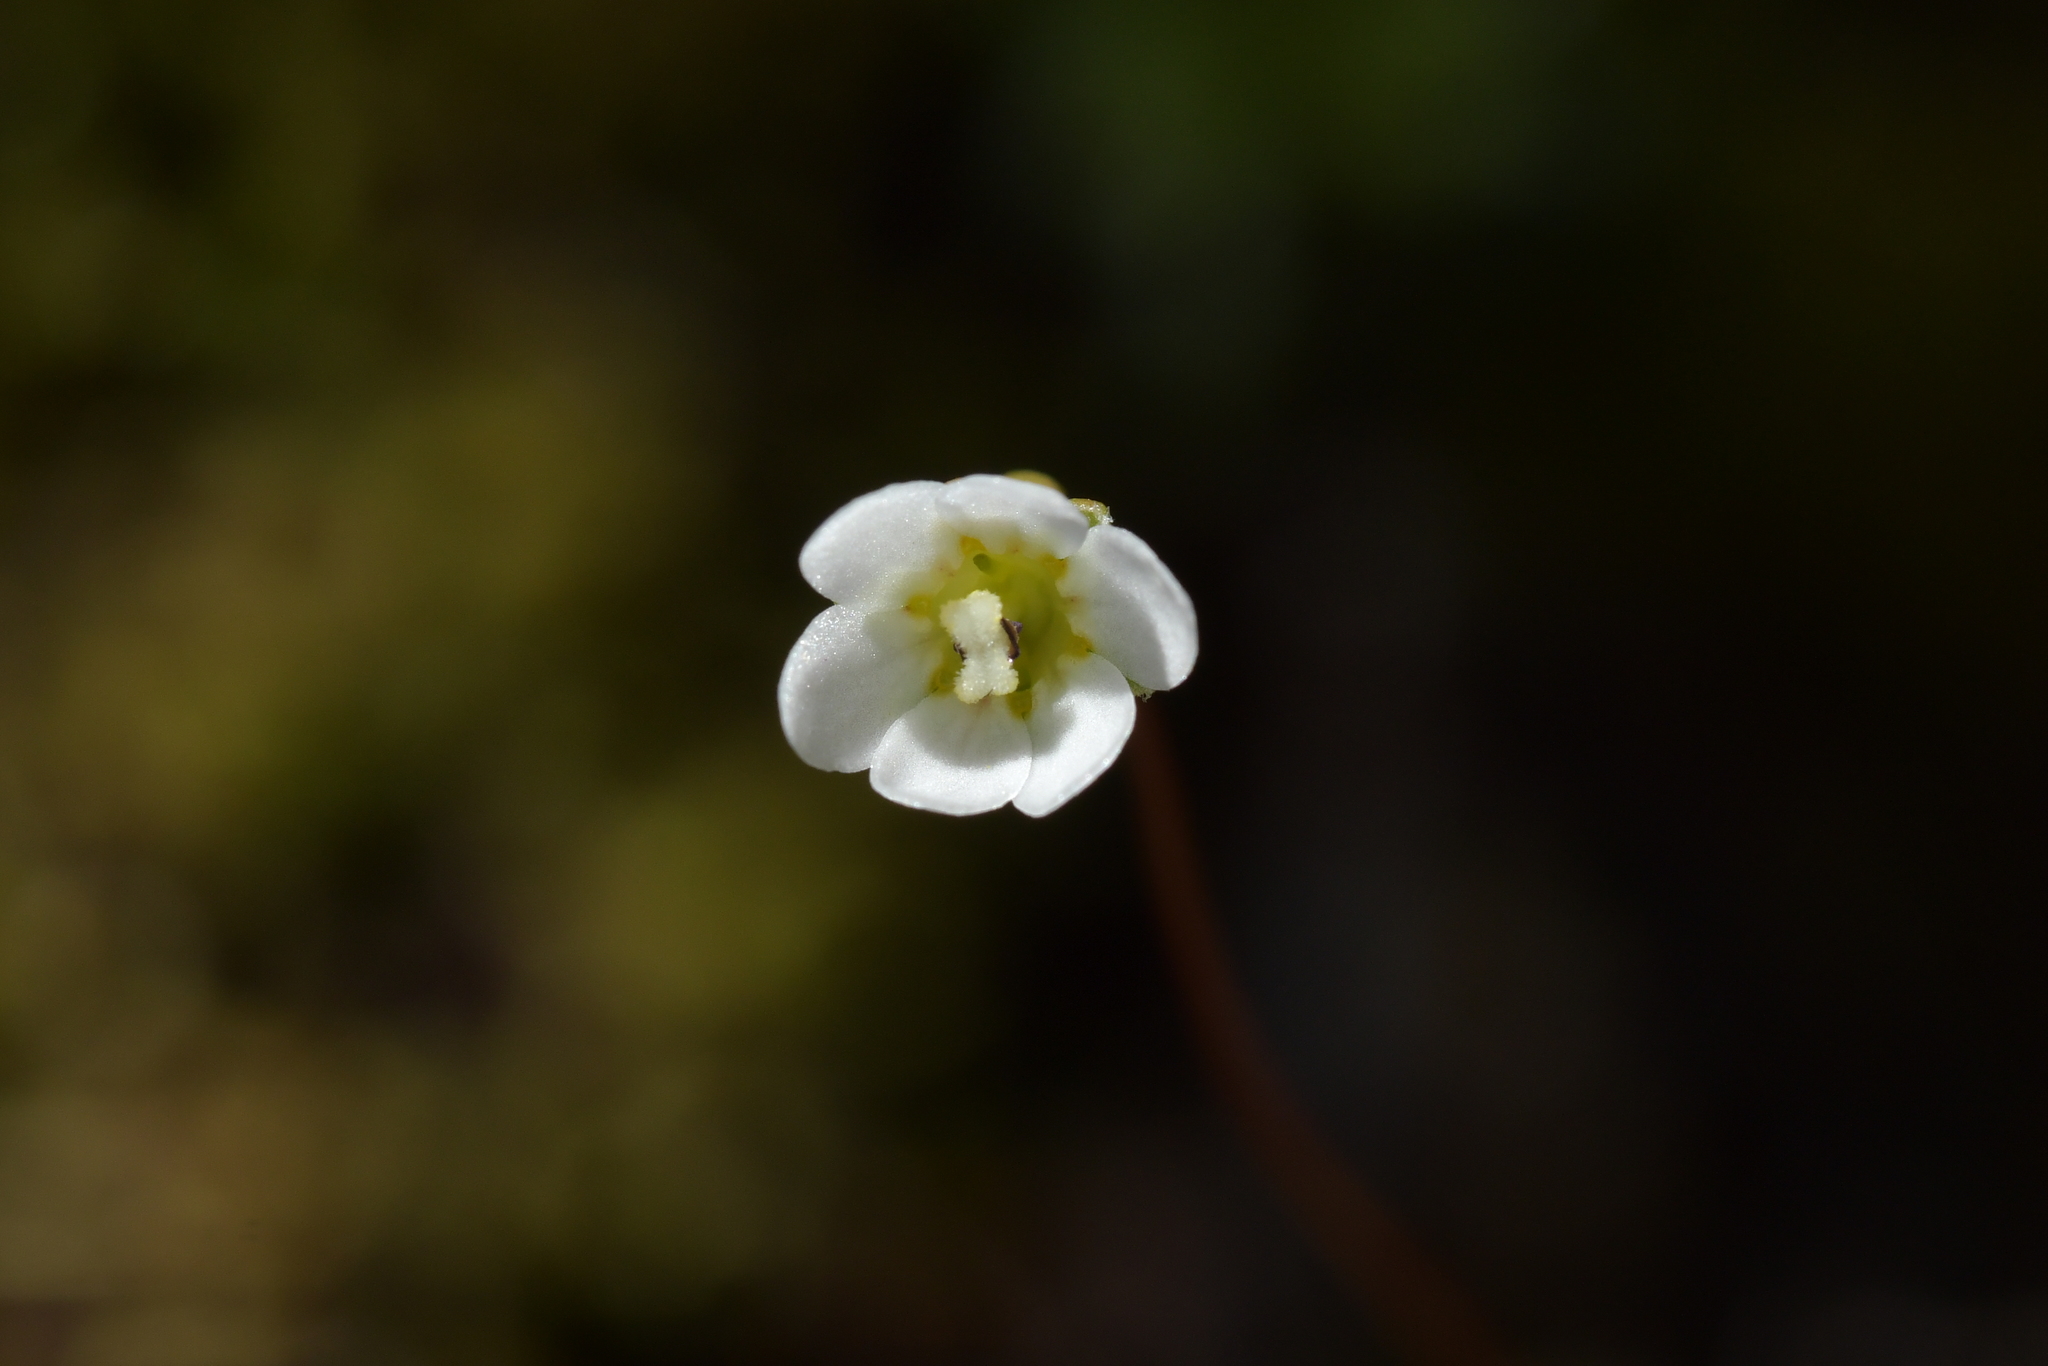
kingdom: Plantae
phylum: Tracheophyta
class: Magnoliopsida
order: Asterales
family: Stylidiaceae
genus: Forstera
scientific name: Forstera tenella
